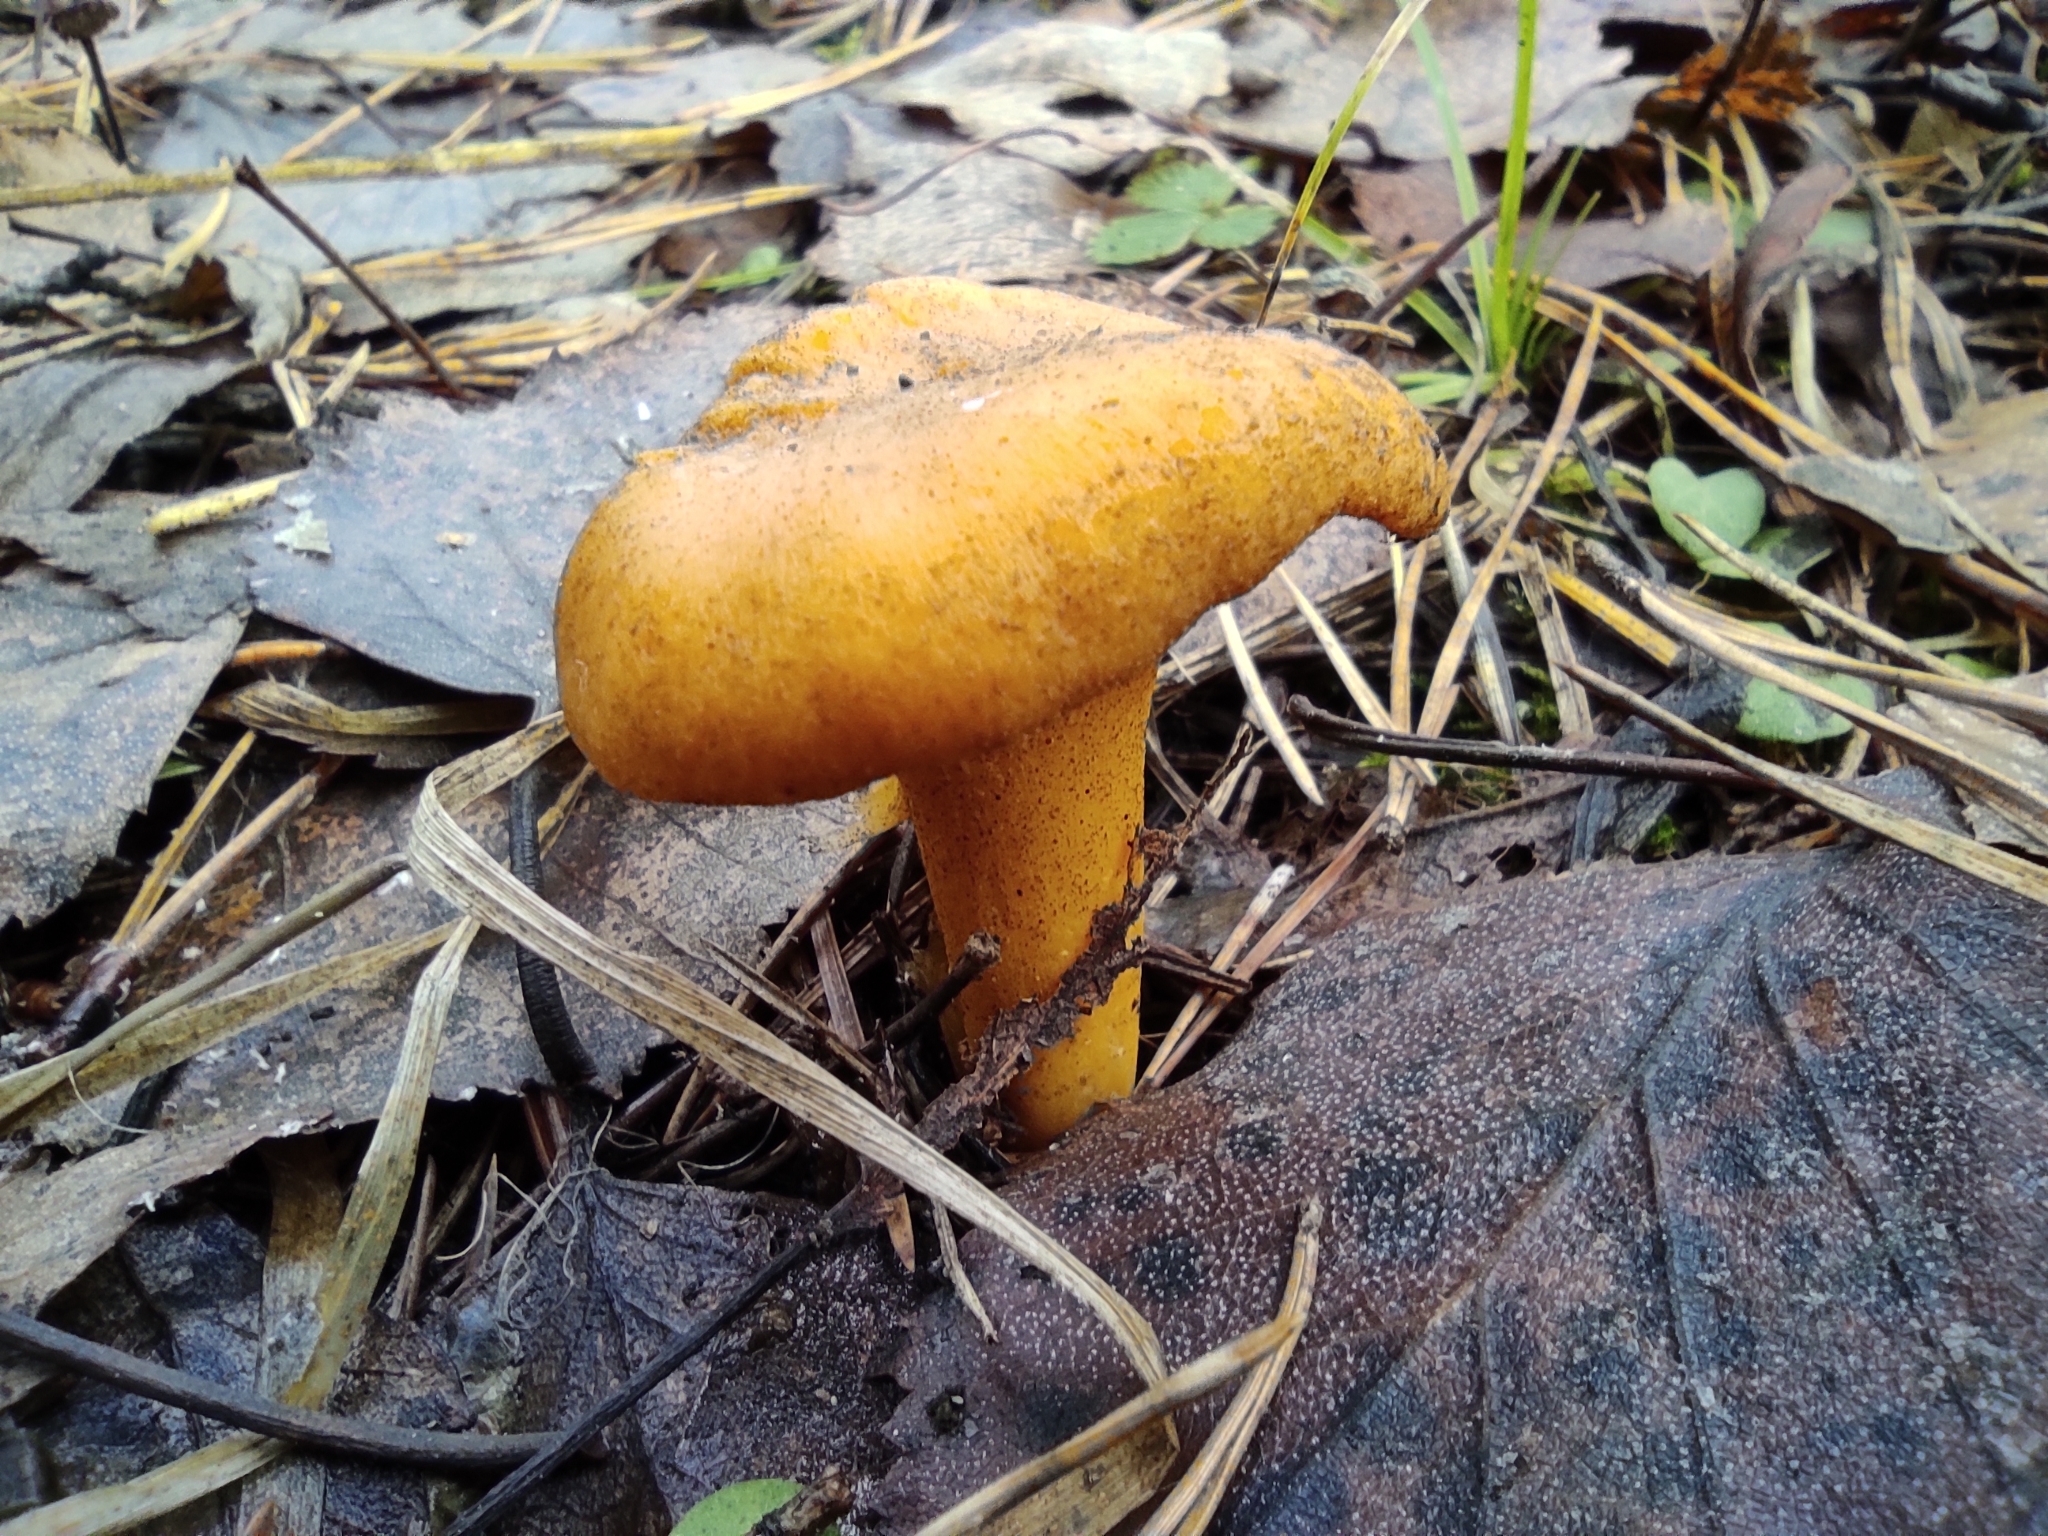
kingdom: Fungi
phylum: Basidiomycota
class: Agaricomycetes
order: Cantharellales
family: Hydnaceae
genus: Cantharellus
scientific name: Cantharellus cibarius
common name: Chanterelle
